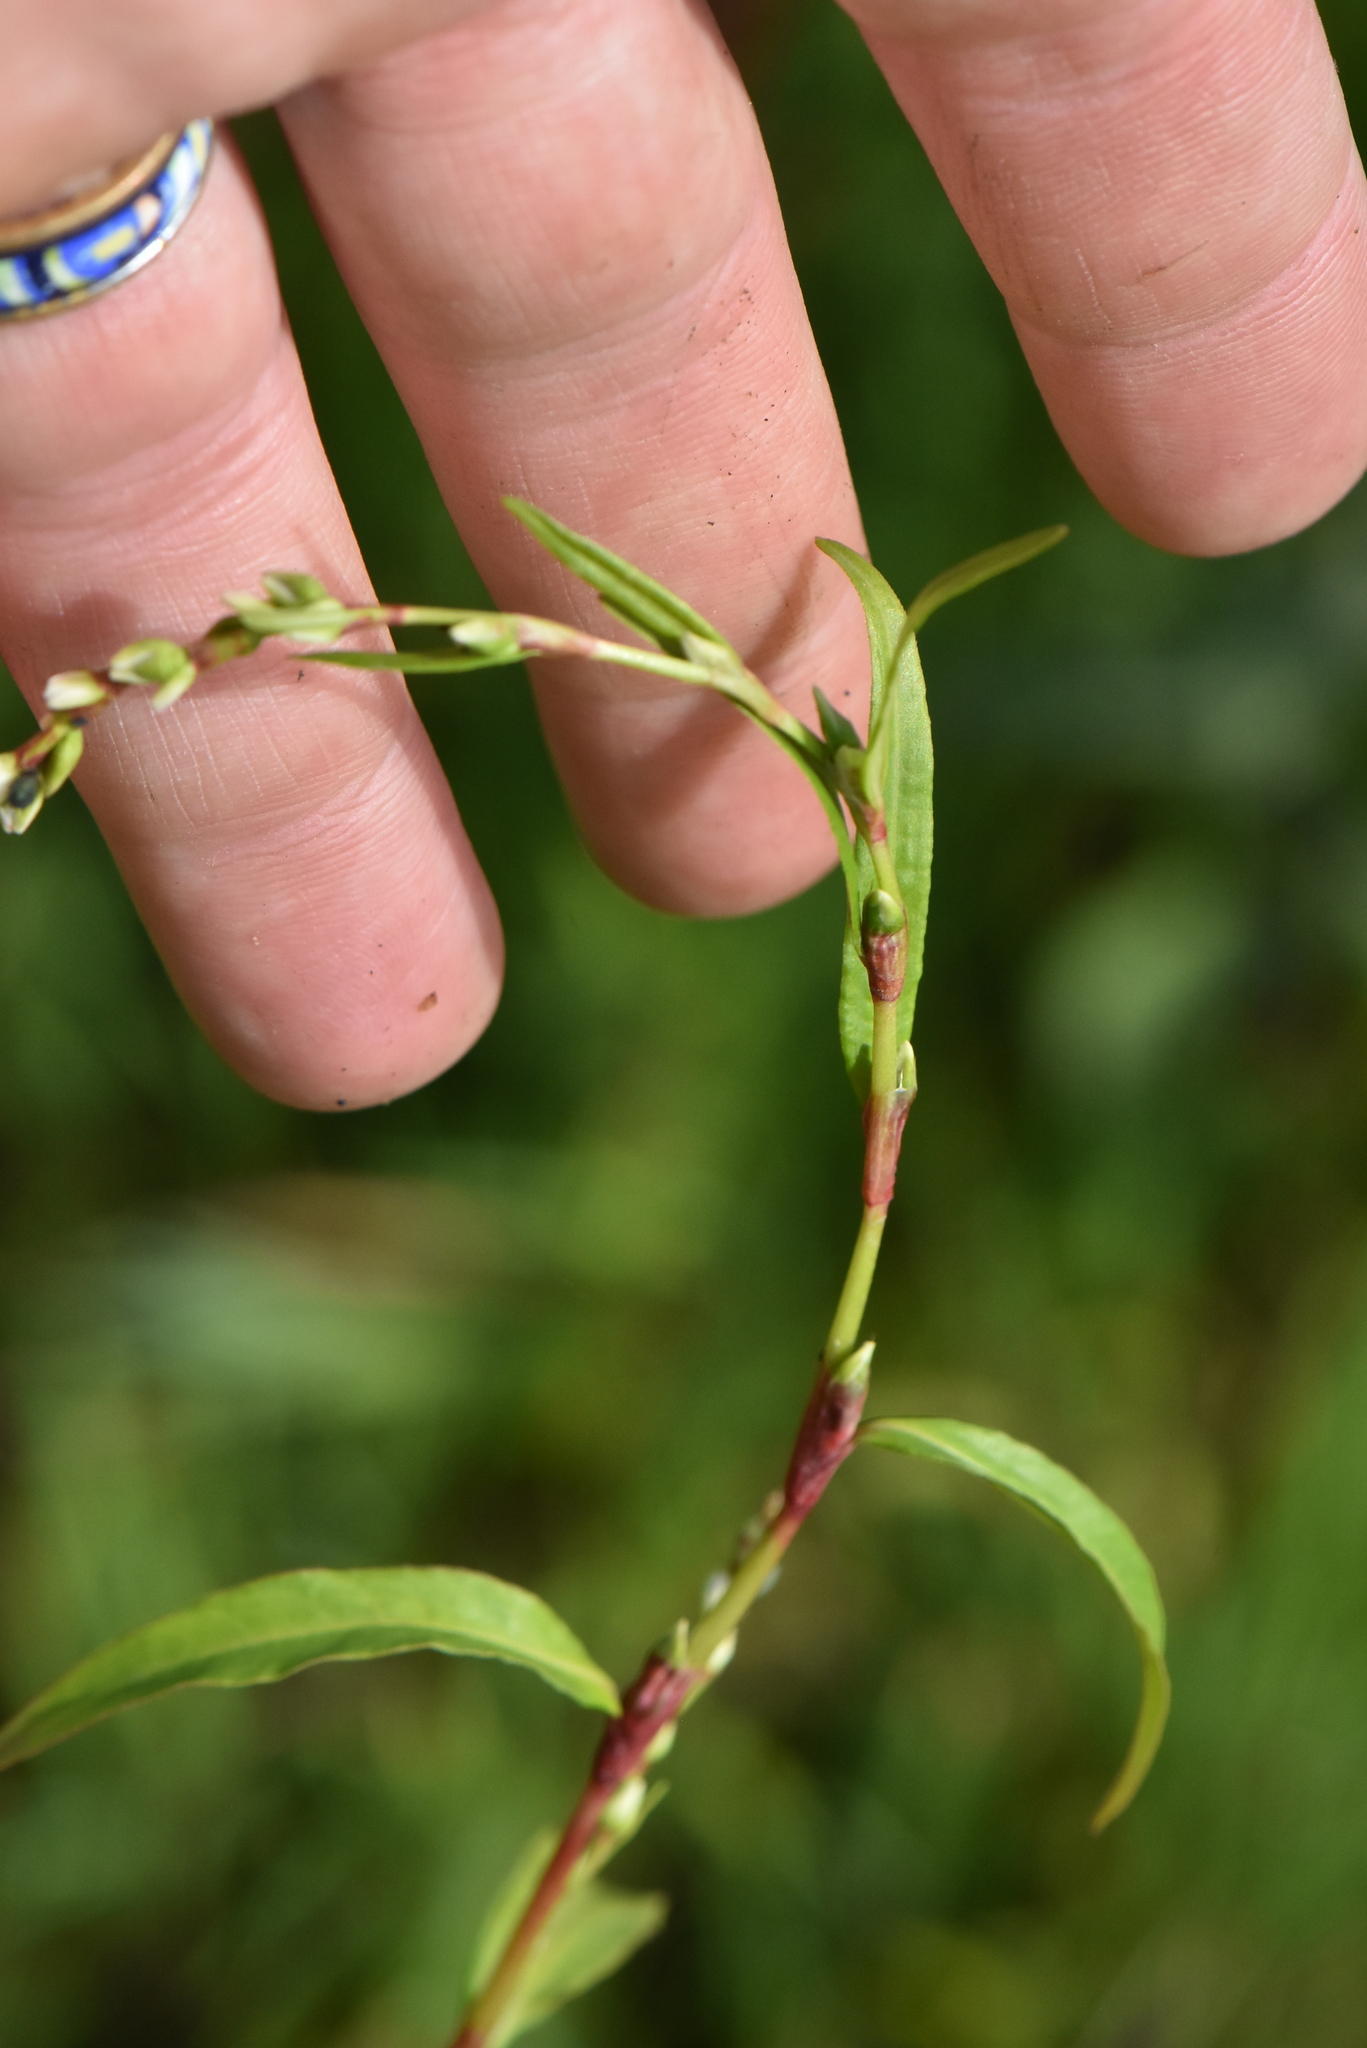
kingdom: Plantae
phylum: Tracheophyta
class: Magnoliopsida
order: Caryophyllales
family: Polygonaceae
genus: Persicaria
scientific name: Persicaria hydropiper
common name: Water-pepper
